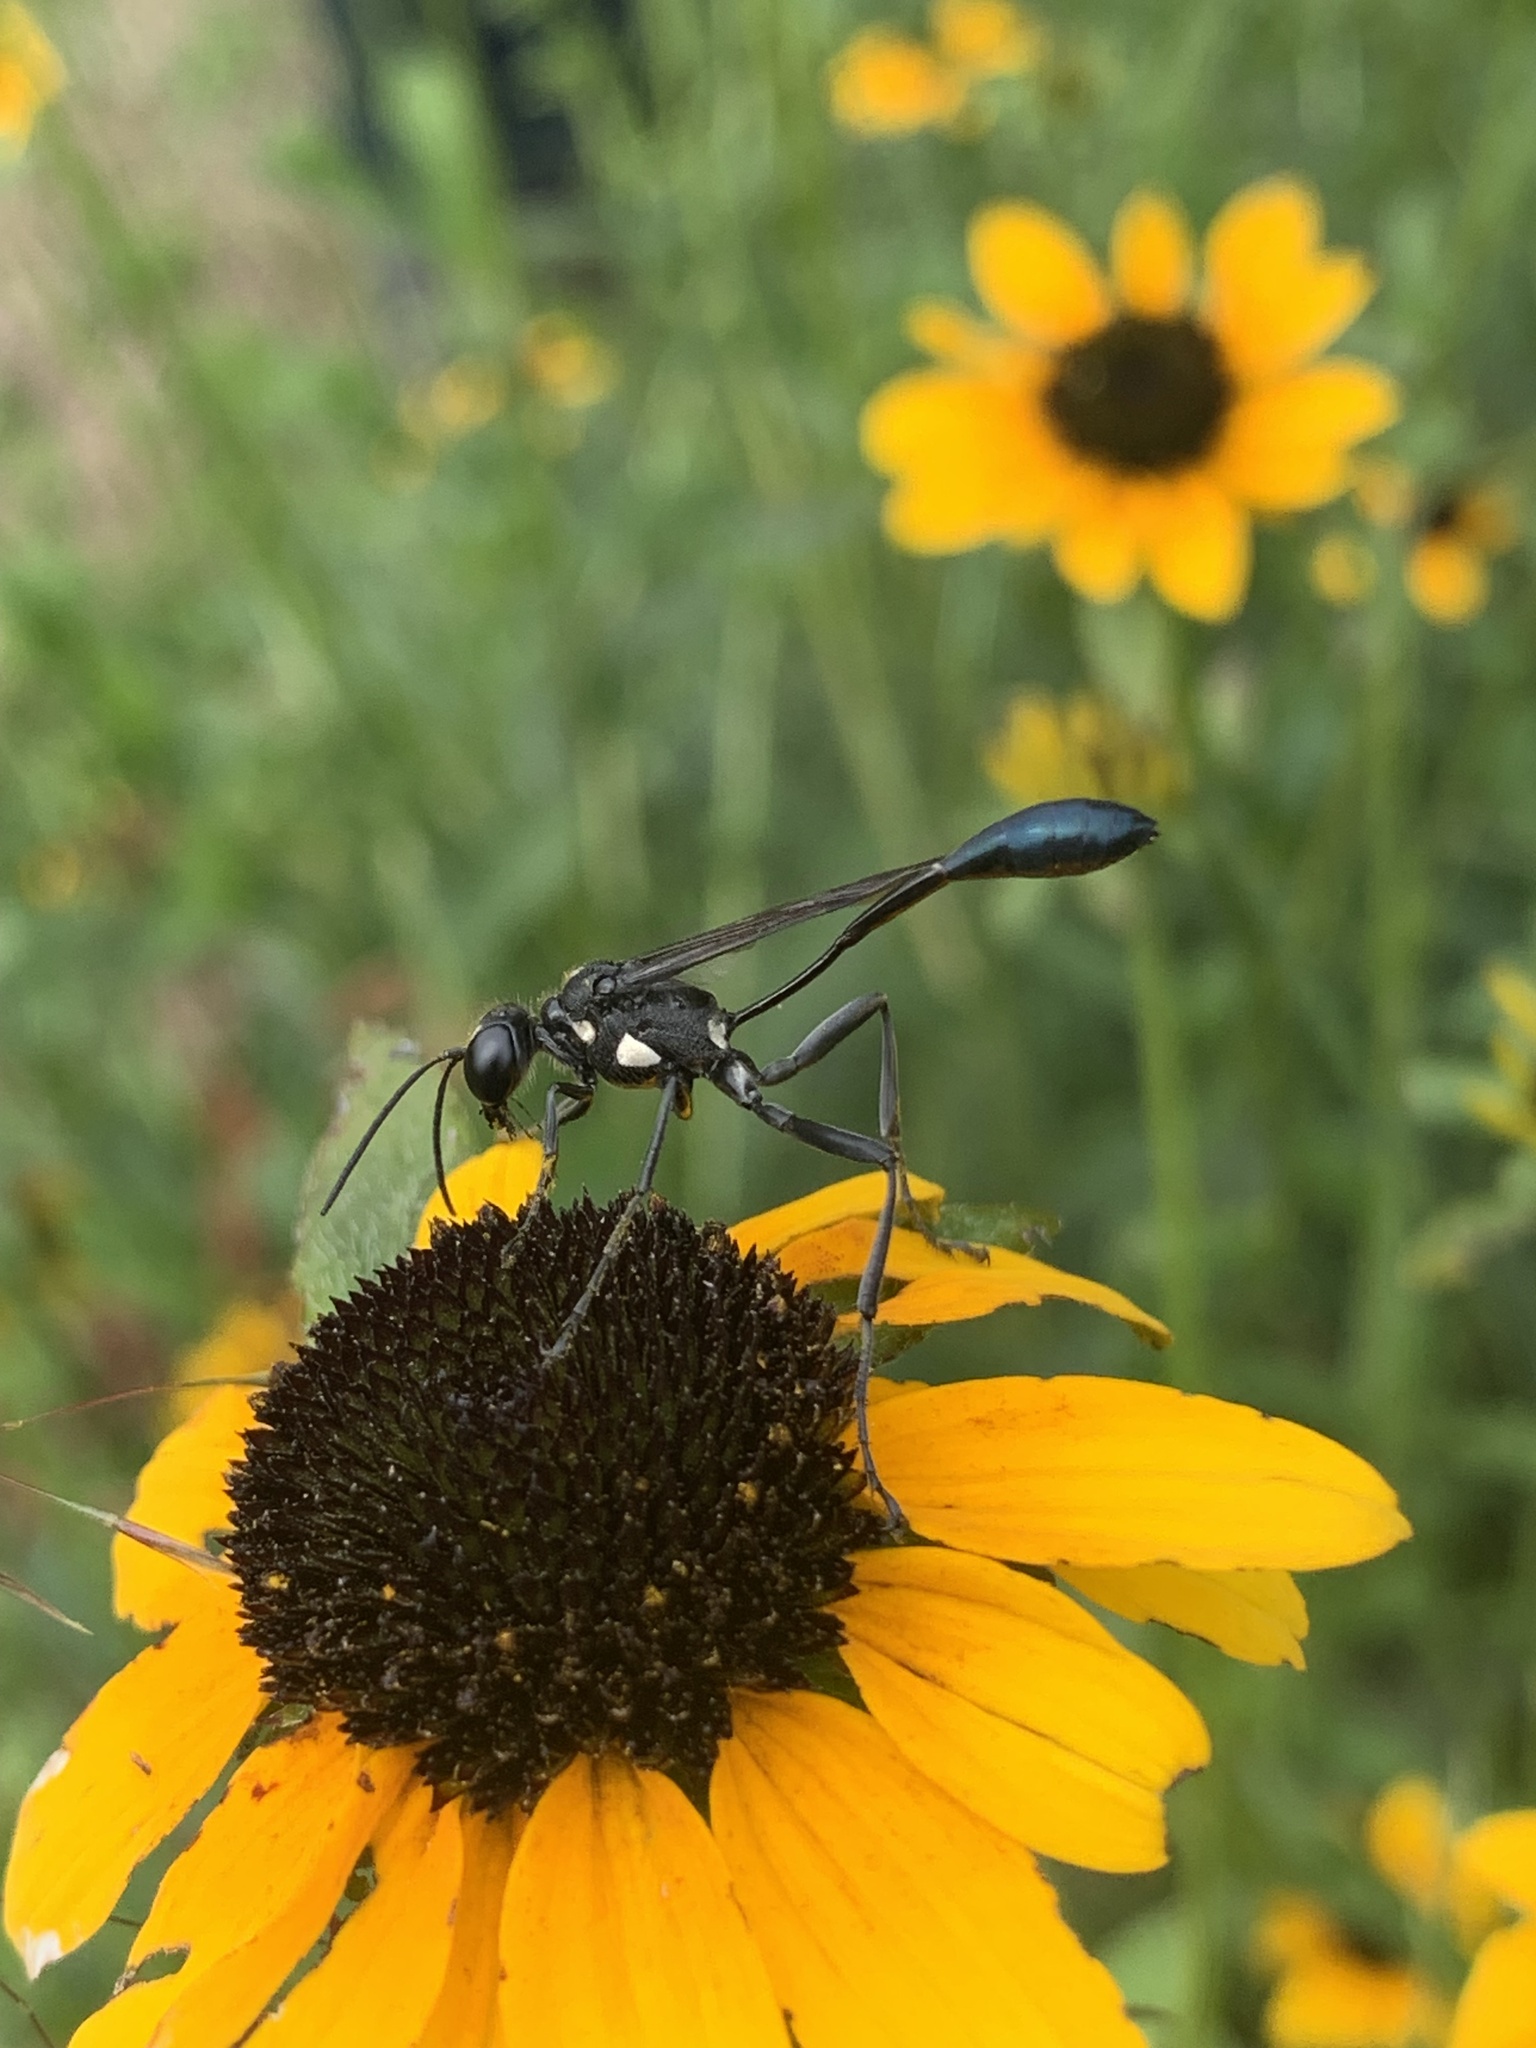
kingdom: Animalia
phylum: Arthropoda
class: Insecta
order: Hymenoptera
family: Sphecidae
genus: Eremnophila
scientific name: Eremnophila aureonotata
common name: Gold-marked thread-waisted wasp
